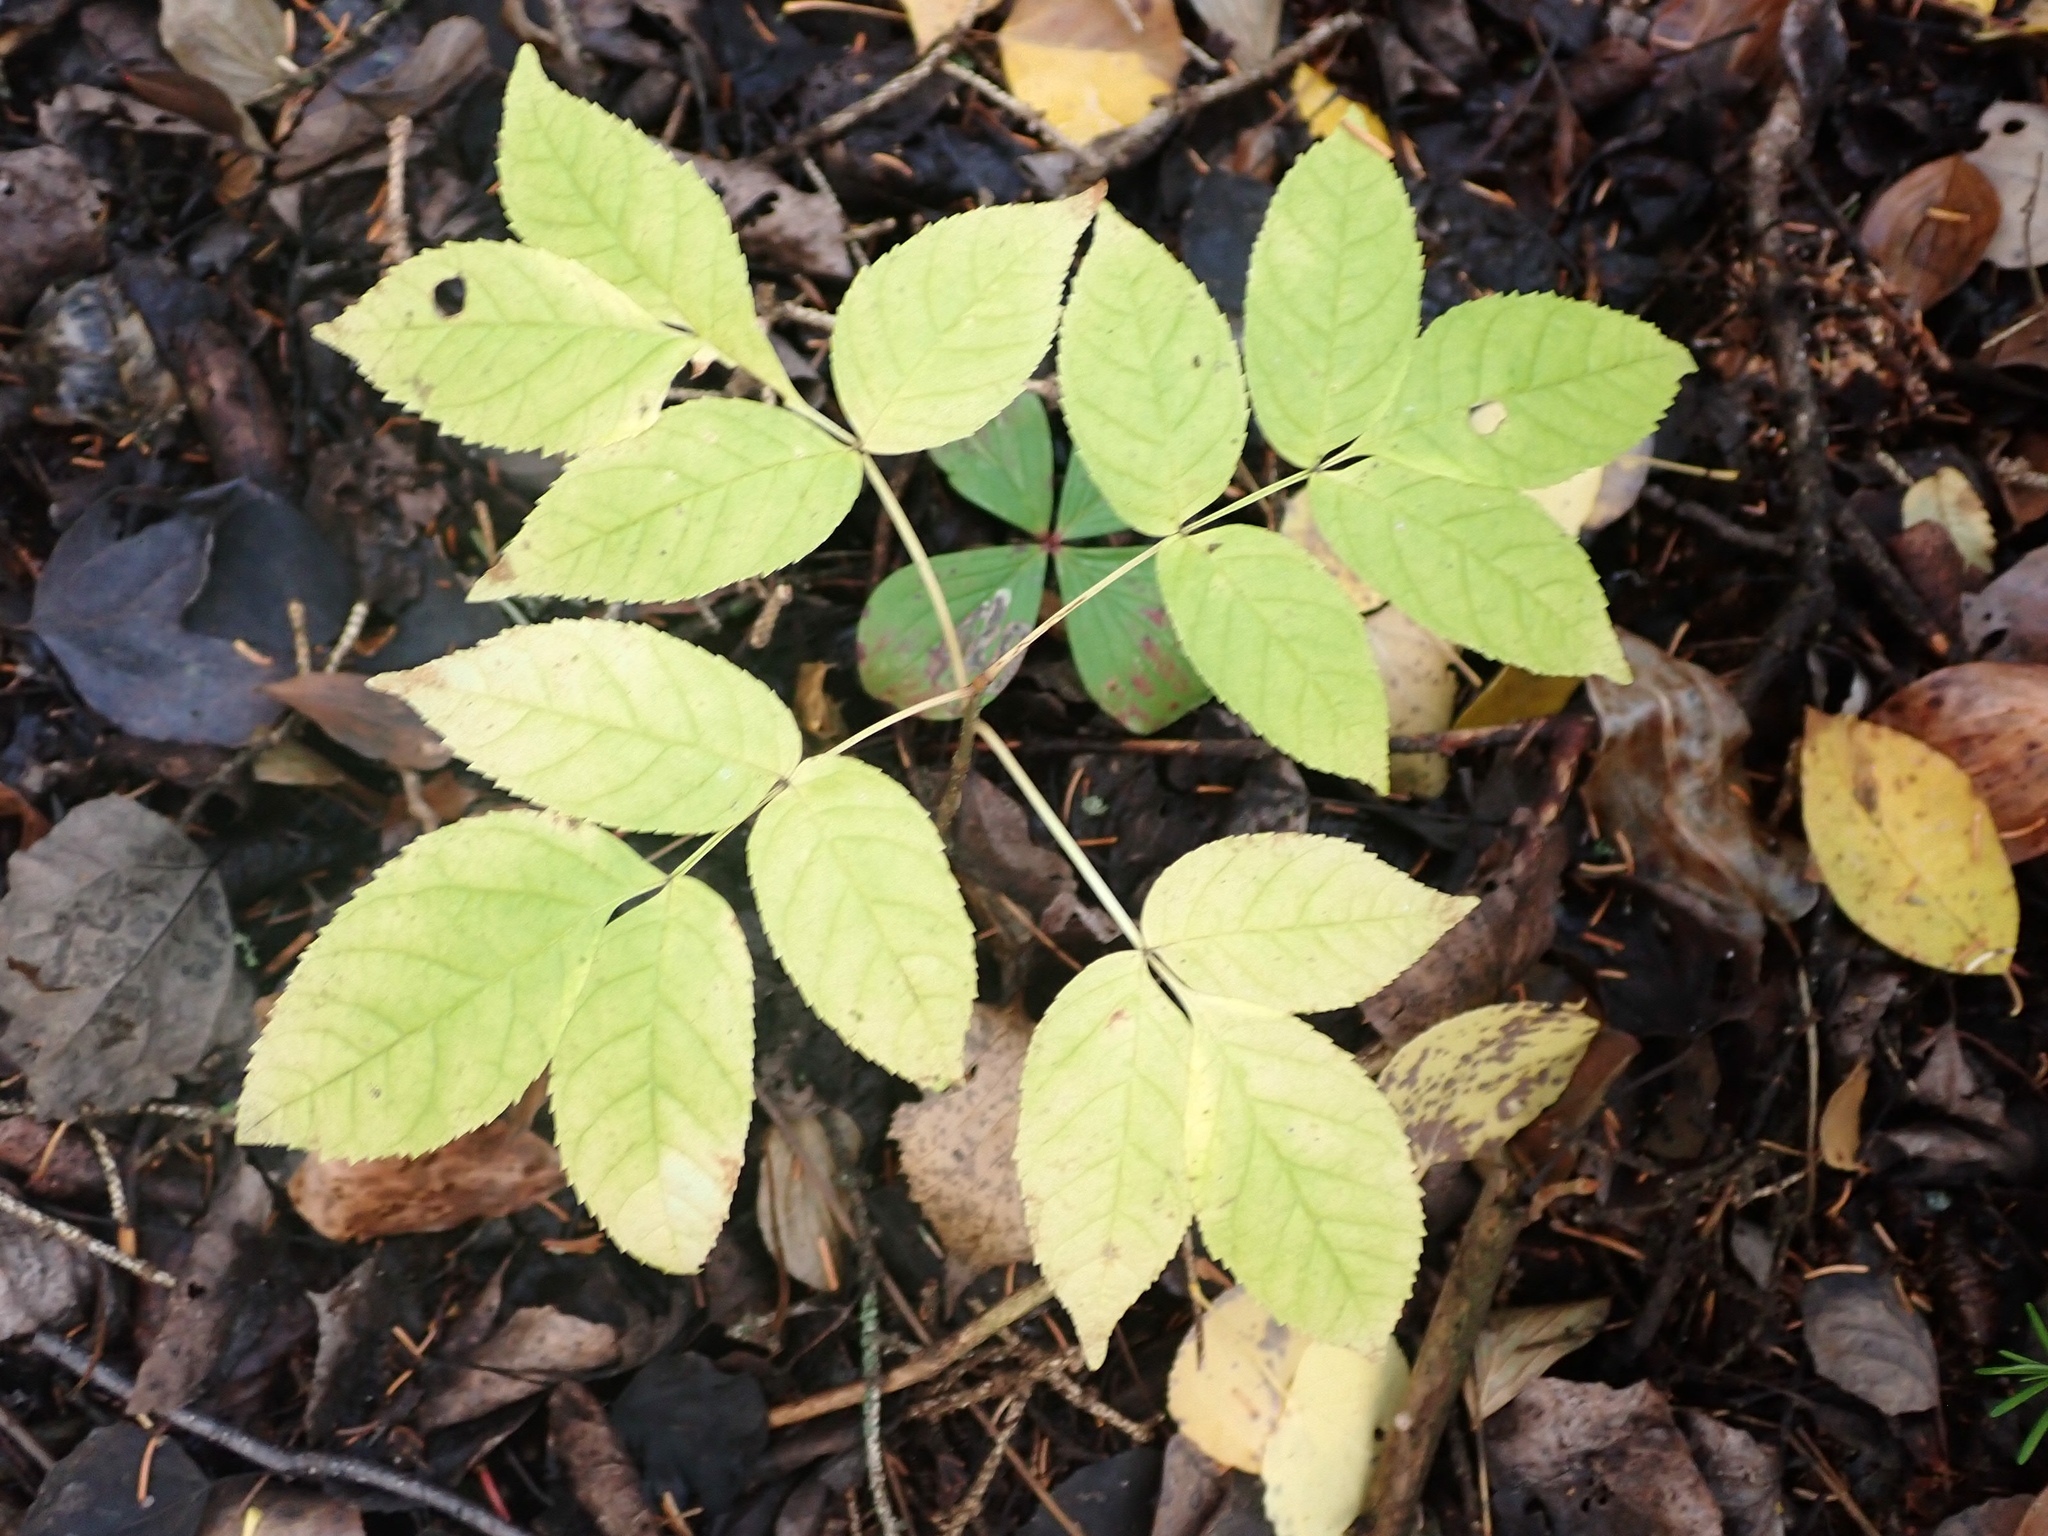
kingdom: Plantae
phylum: Tracheophyta
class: Magnoliopsida
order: Lamiales
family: Oleaceae
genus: Fraxinus
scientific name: Fraxinus nigra
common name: Black ash
